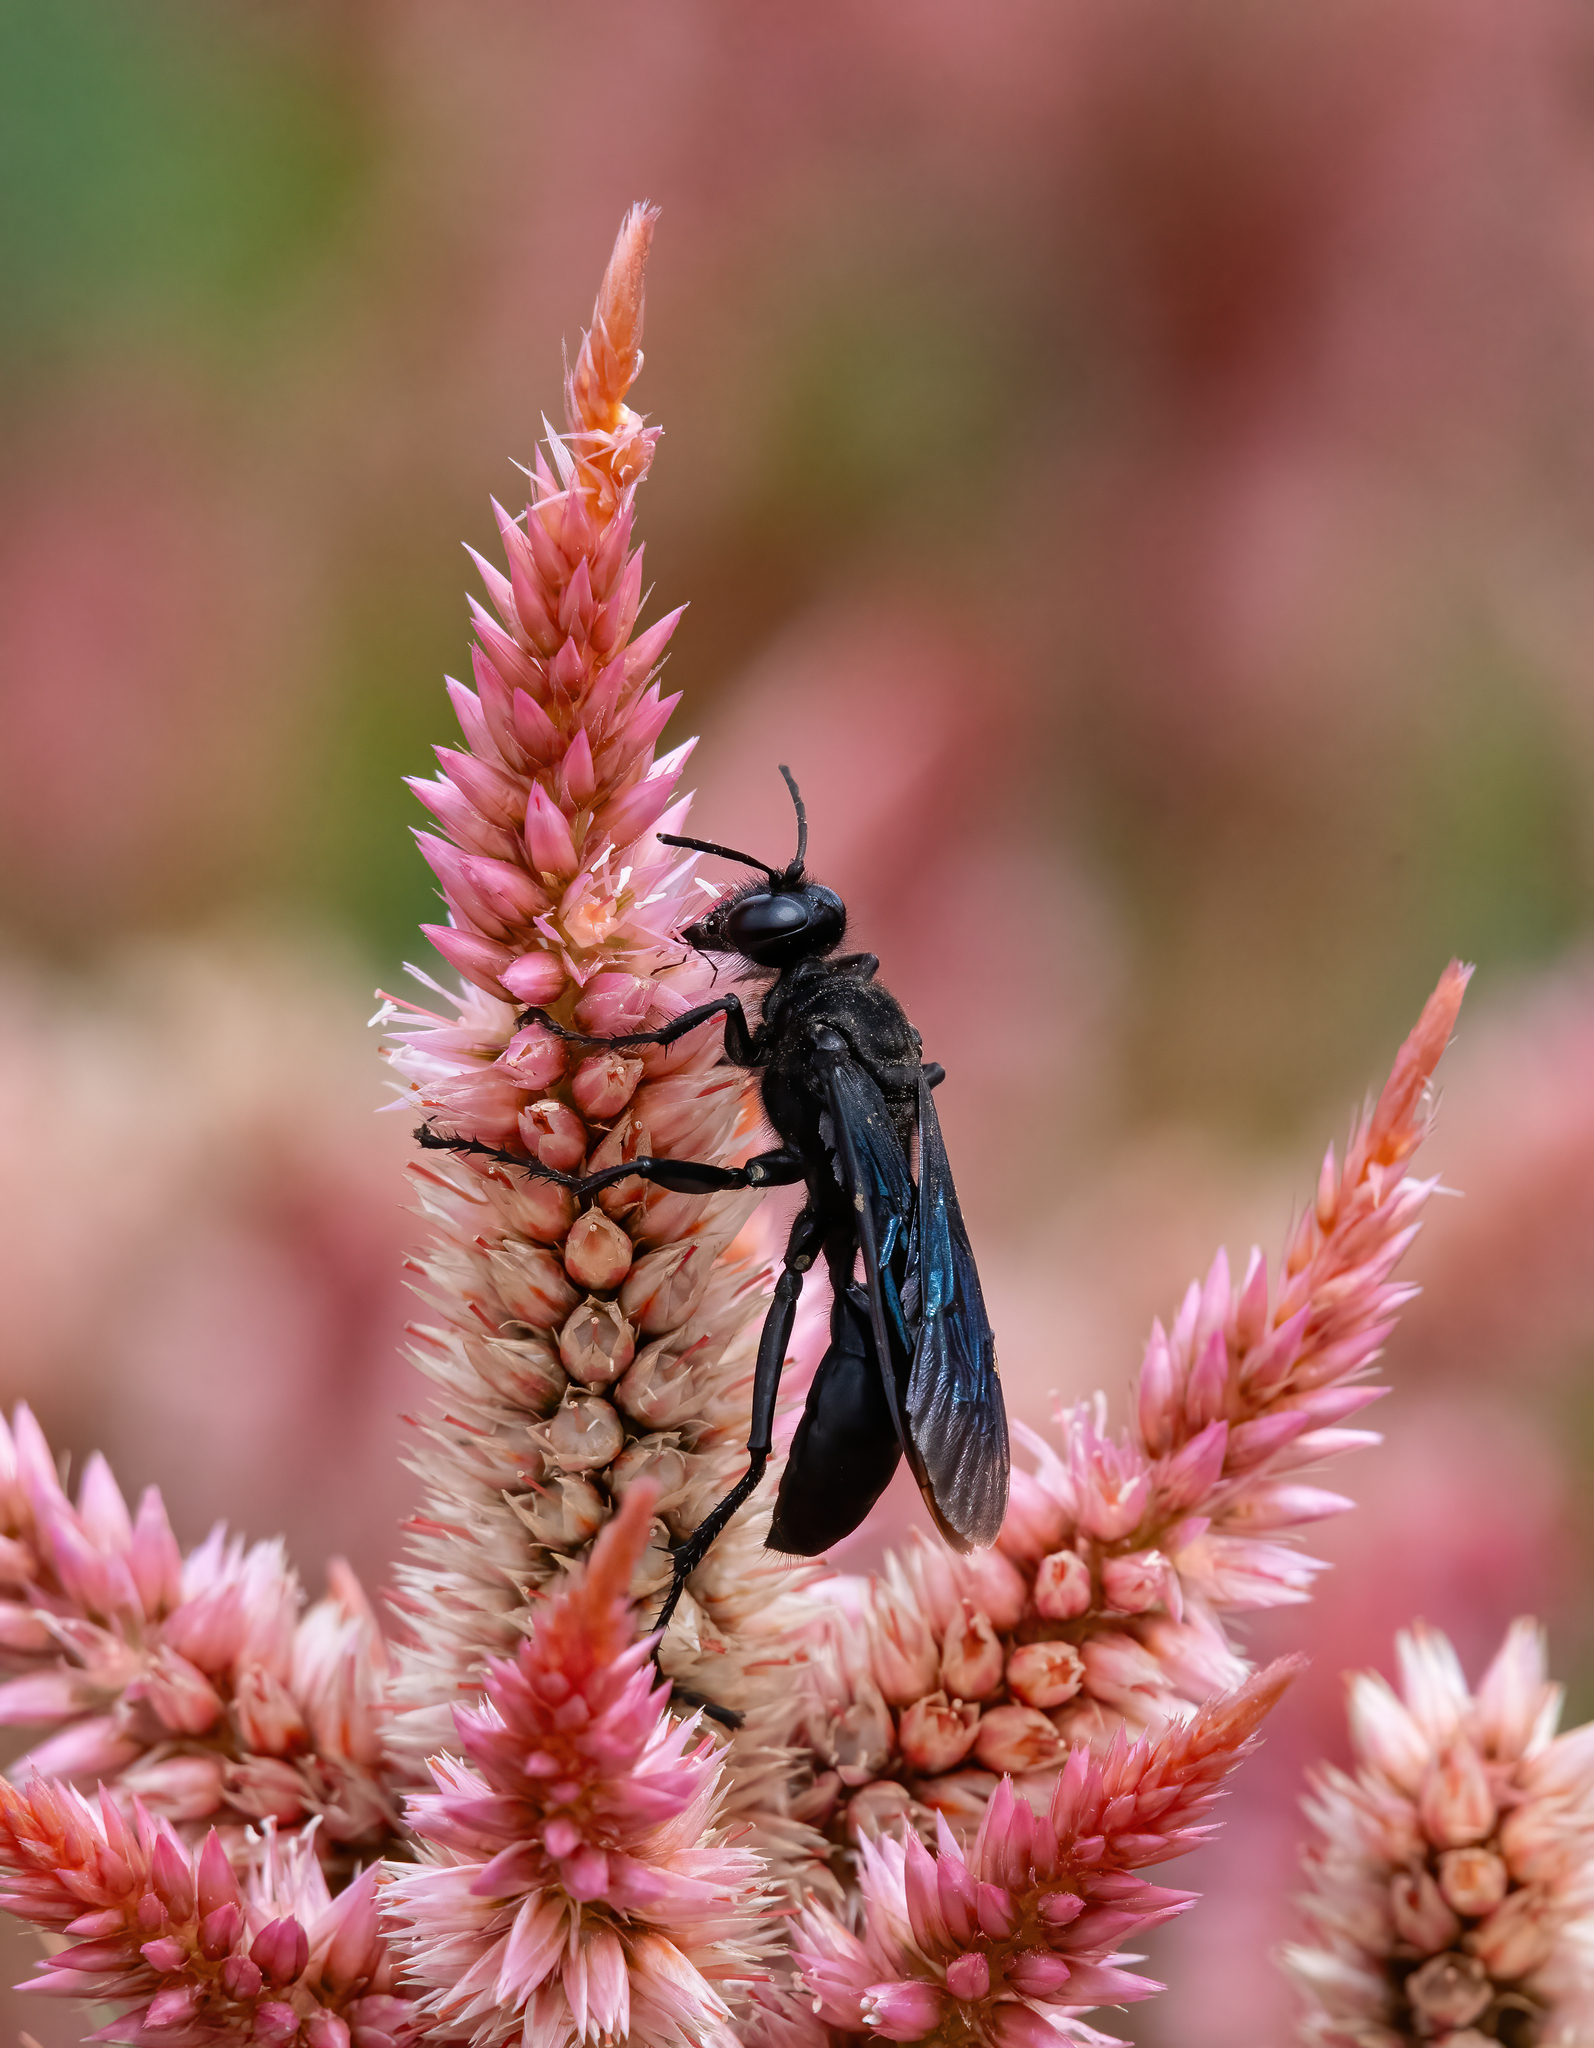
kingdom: Animalia
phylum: Arthropoda
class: Insecta
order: Hymenoptera
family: Sphecidae
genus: Sphex
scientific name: Sphex pensylvanicus
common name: Great black digger wasp
